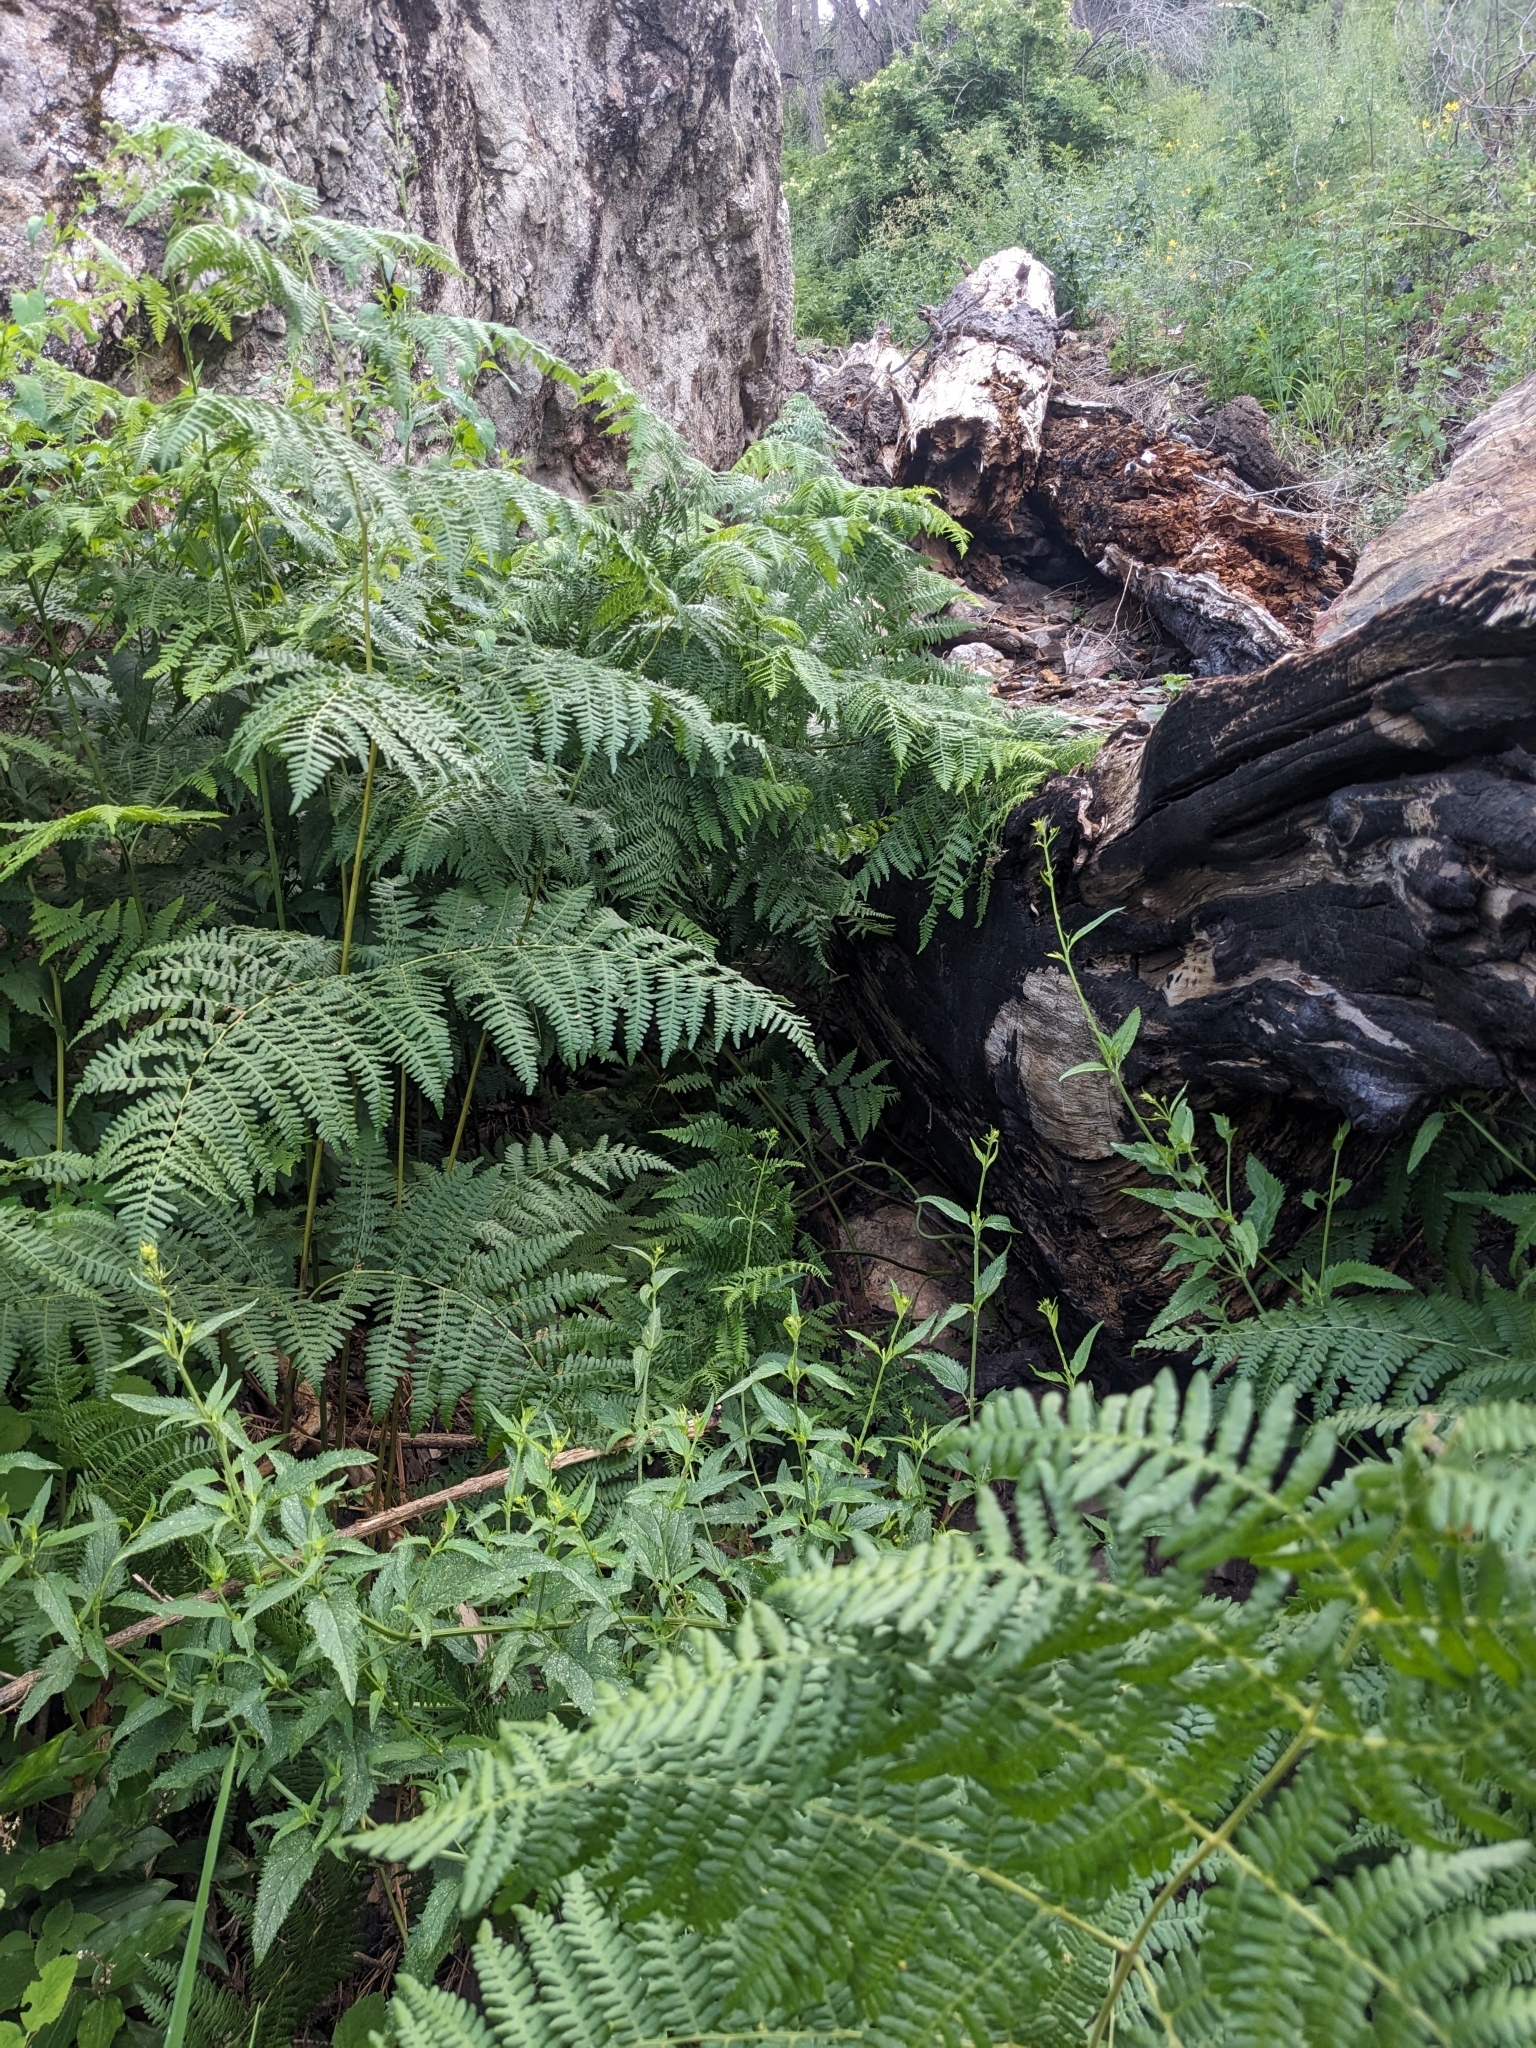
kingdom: Plantae
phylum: Tracheophyta
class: Polypodiopsida
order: Polypodiales
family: Dennstaedtiaceae
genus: Pteridium
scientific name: Pteridium aquilinum
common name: Bracken
